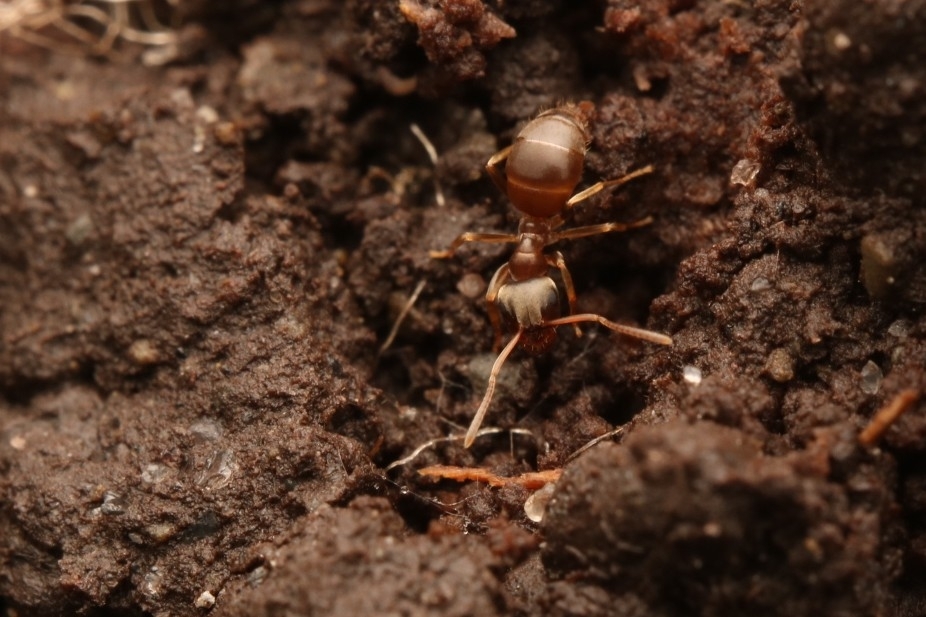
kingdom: Animalia
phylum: Arthropoda
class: Insecta
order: Hymenoptera
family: Formicidae
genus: Lasius
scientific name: Lasius americanus
